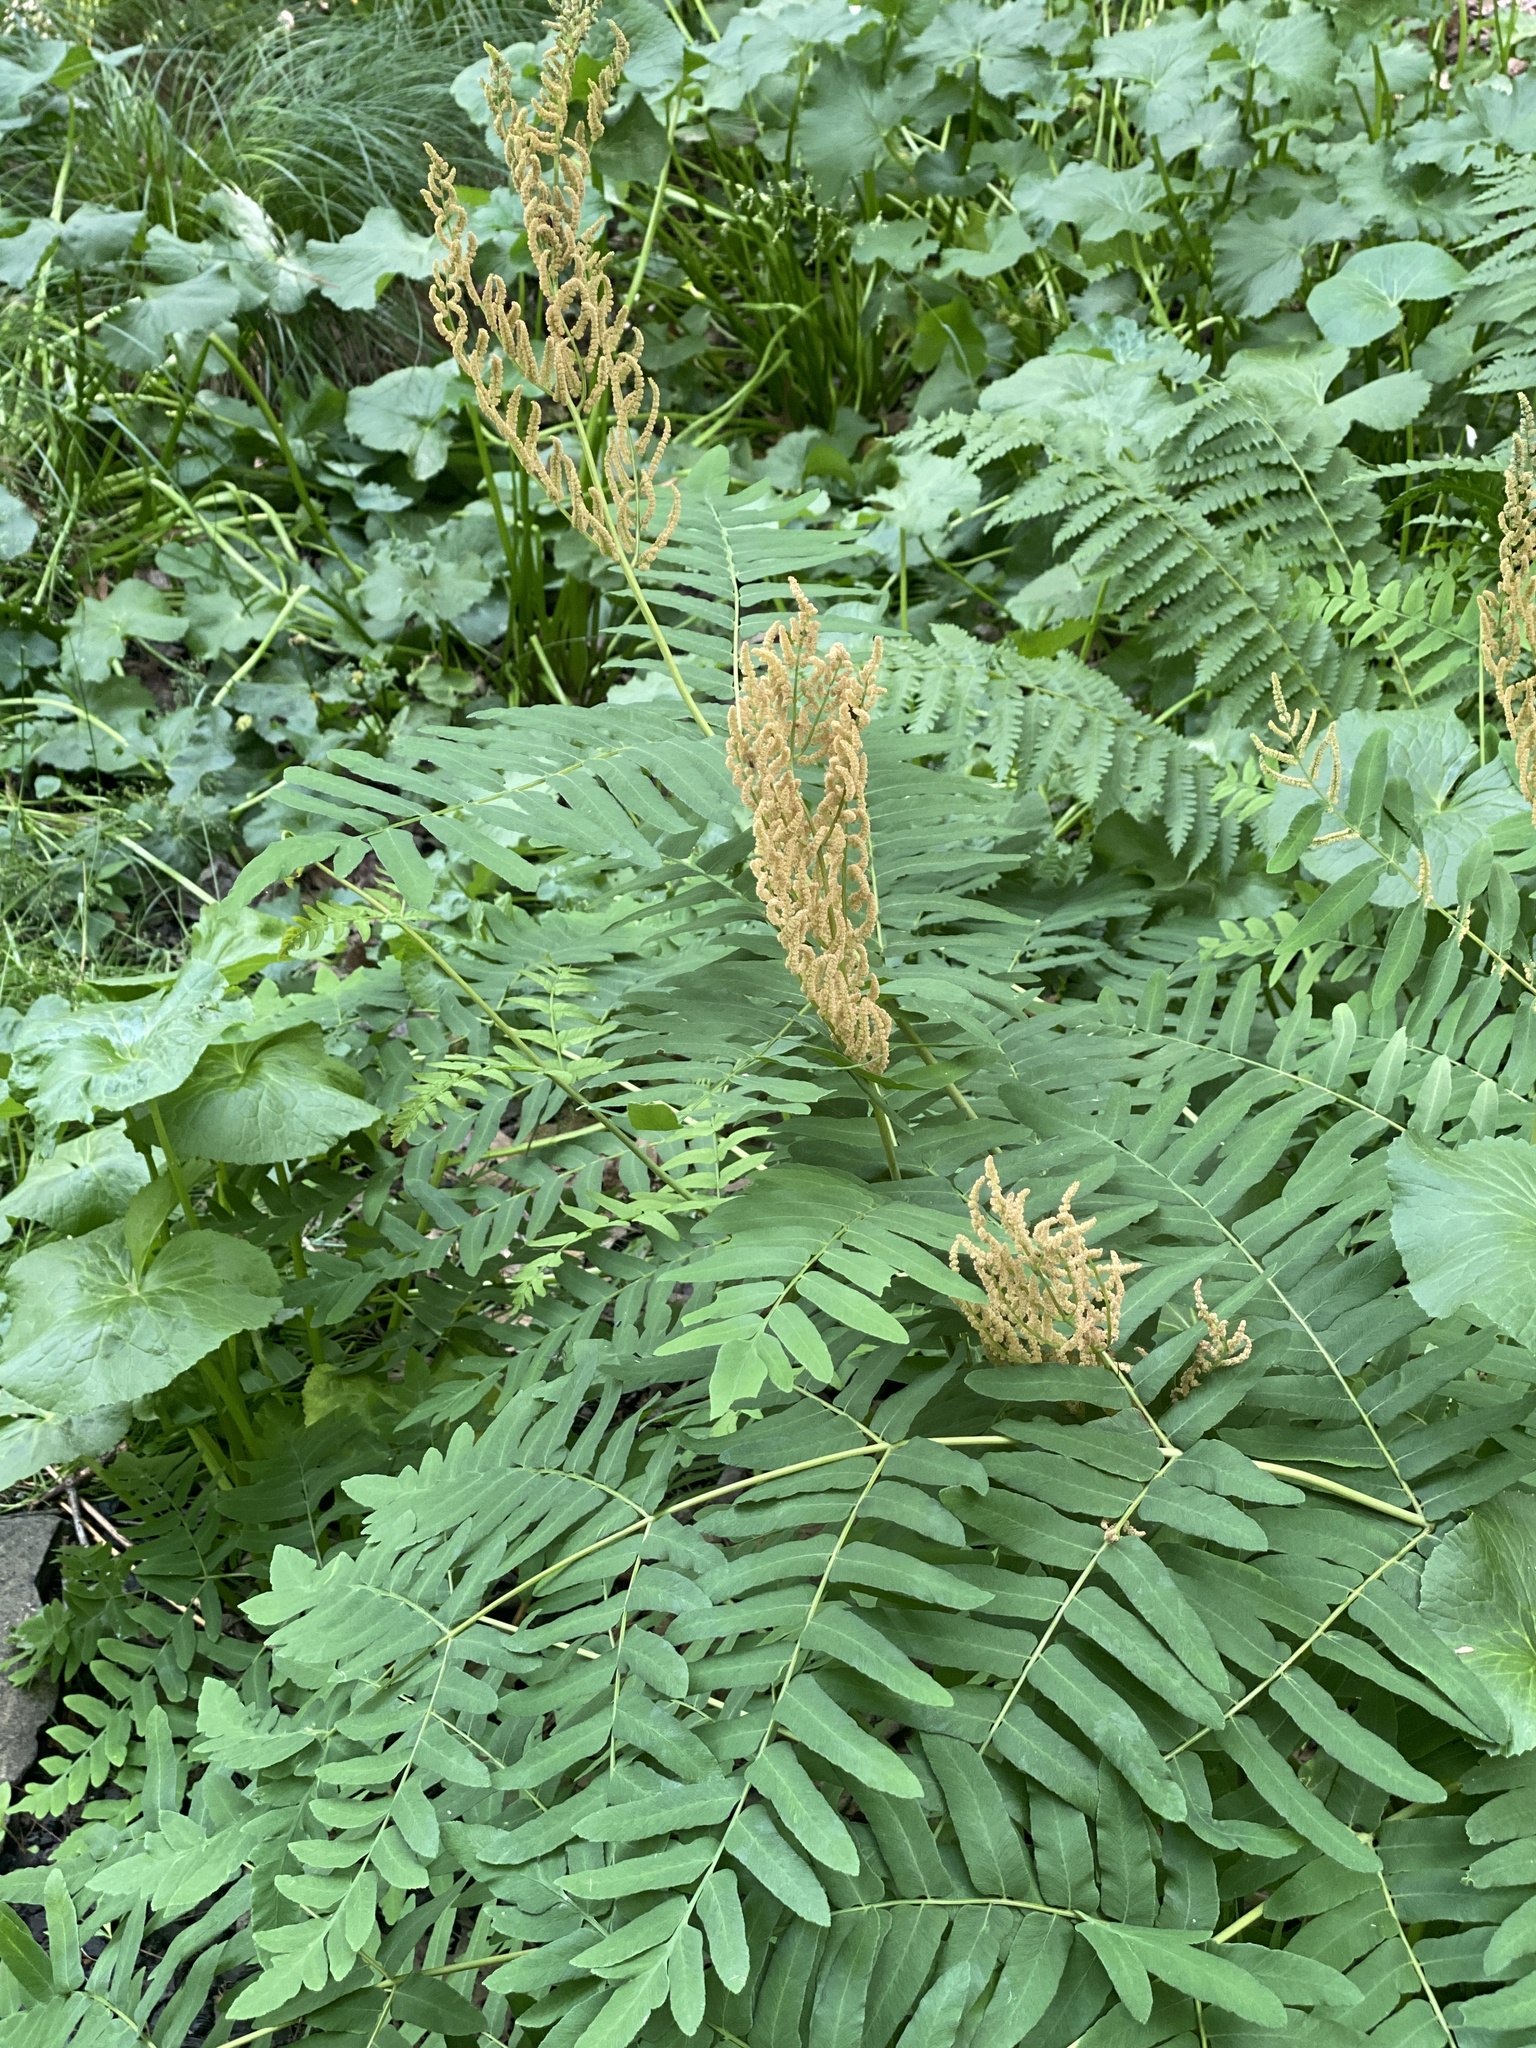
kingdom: Plantae
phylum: Tracheophyta
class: Polypodiopsida
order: Osmundales
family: Osmundaceae
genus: Osmunda
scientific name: Osmunda spectabilis
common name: American royal fern
